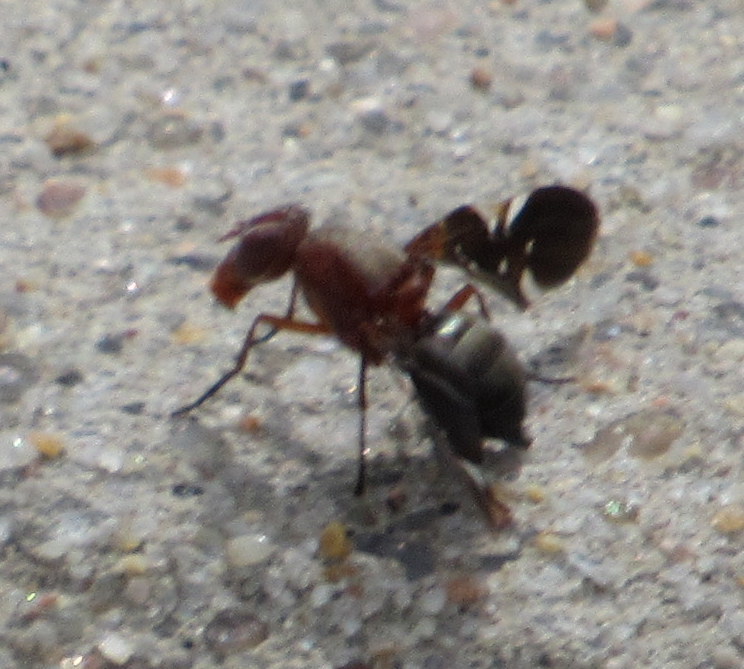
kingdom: Animalia
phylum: Arthropoda
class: Insecta
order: Diptera
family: Ulidiidae
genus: Delphinia
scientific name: Delphinia picta
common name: Common picture-winged fly
